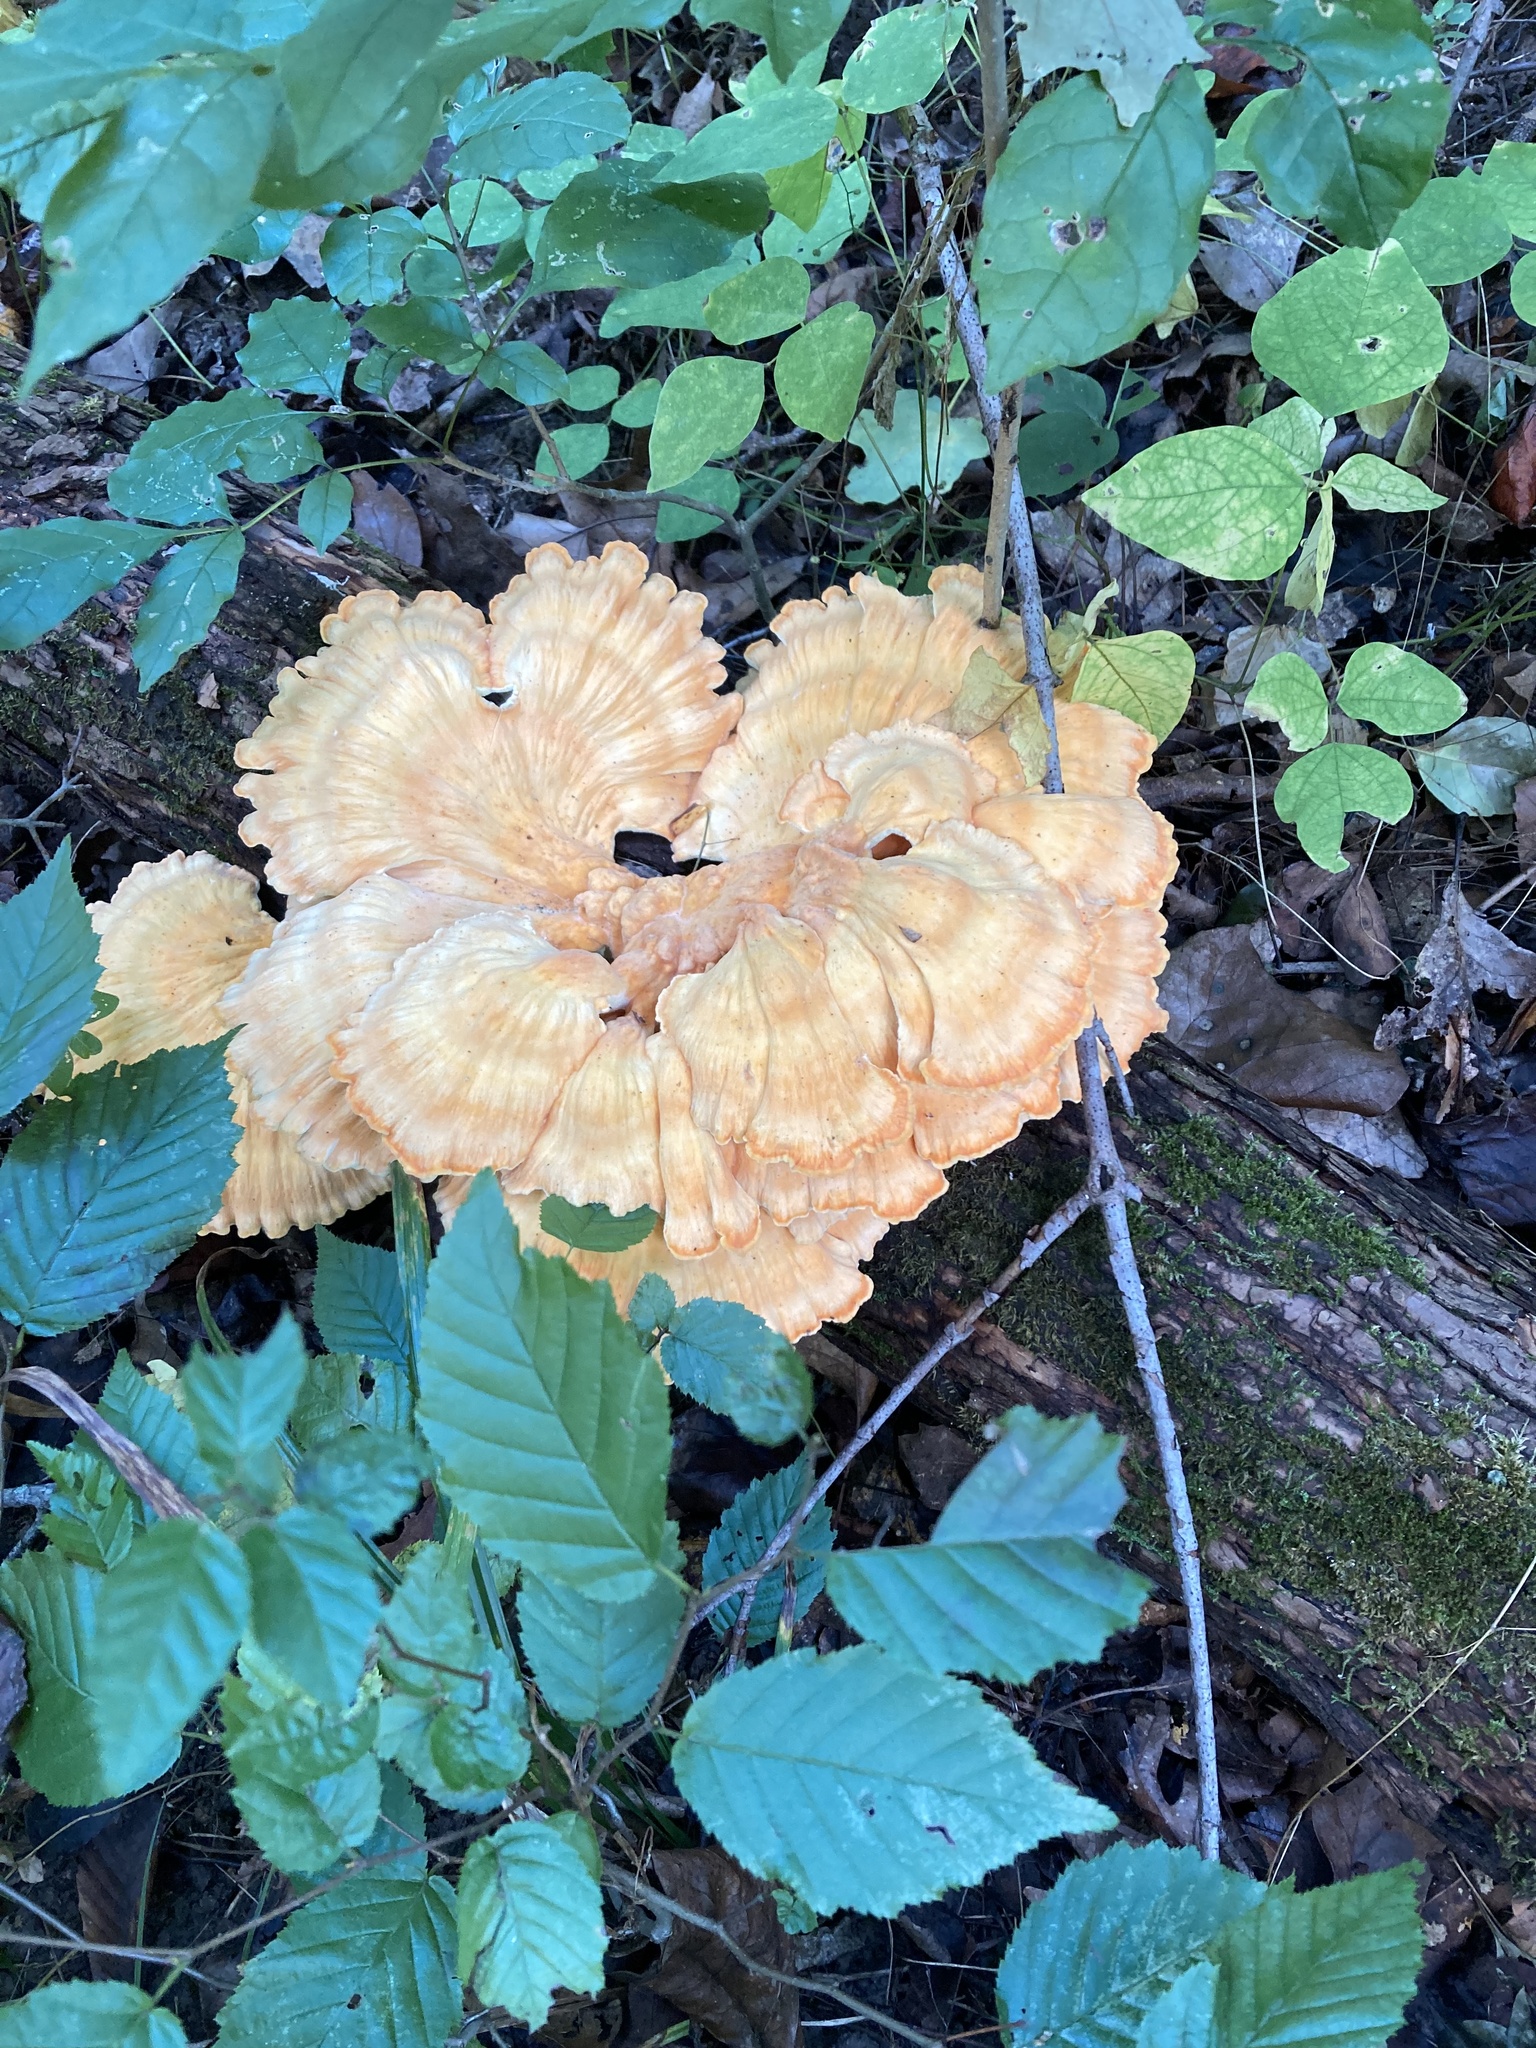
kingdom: Fungi
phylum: Basidiomycota
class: Agaricomycetes
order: Polyporales
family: Laetiporaceae
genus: Laetiporus
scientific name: Laetiporus sulphureus
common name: Chicken of the woods
